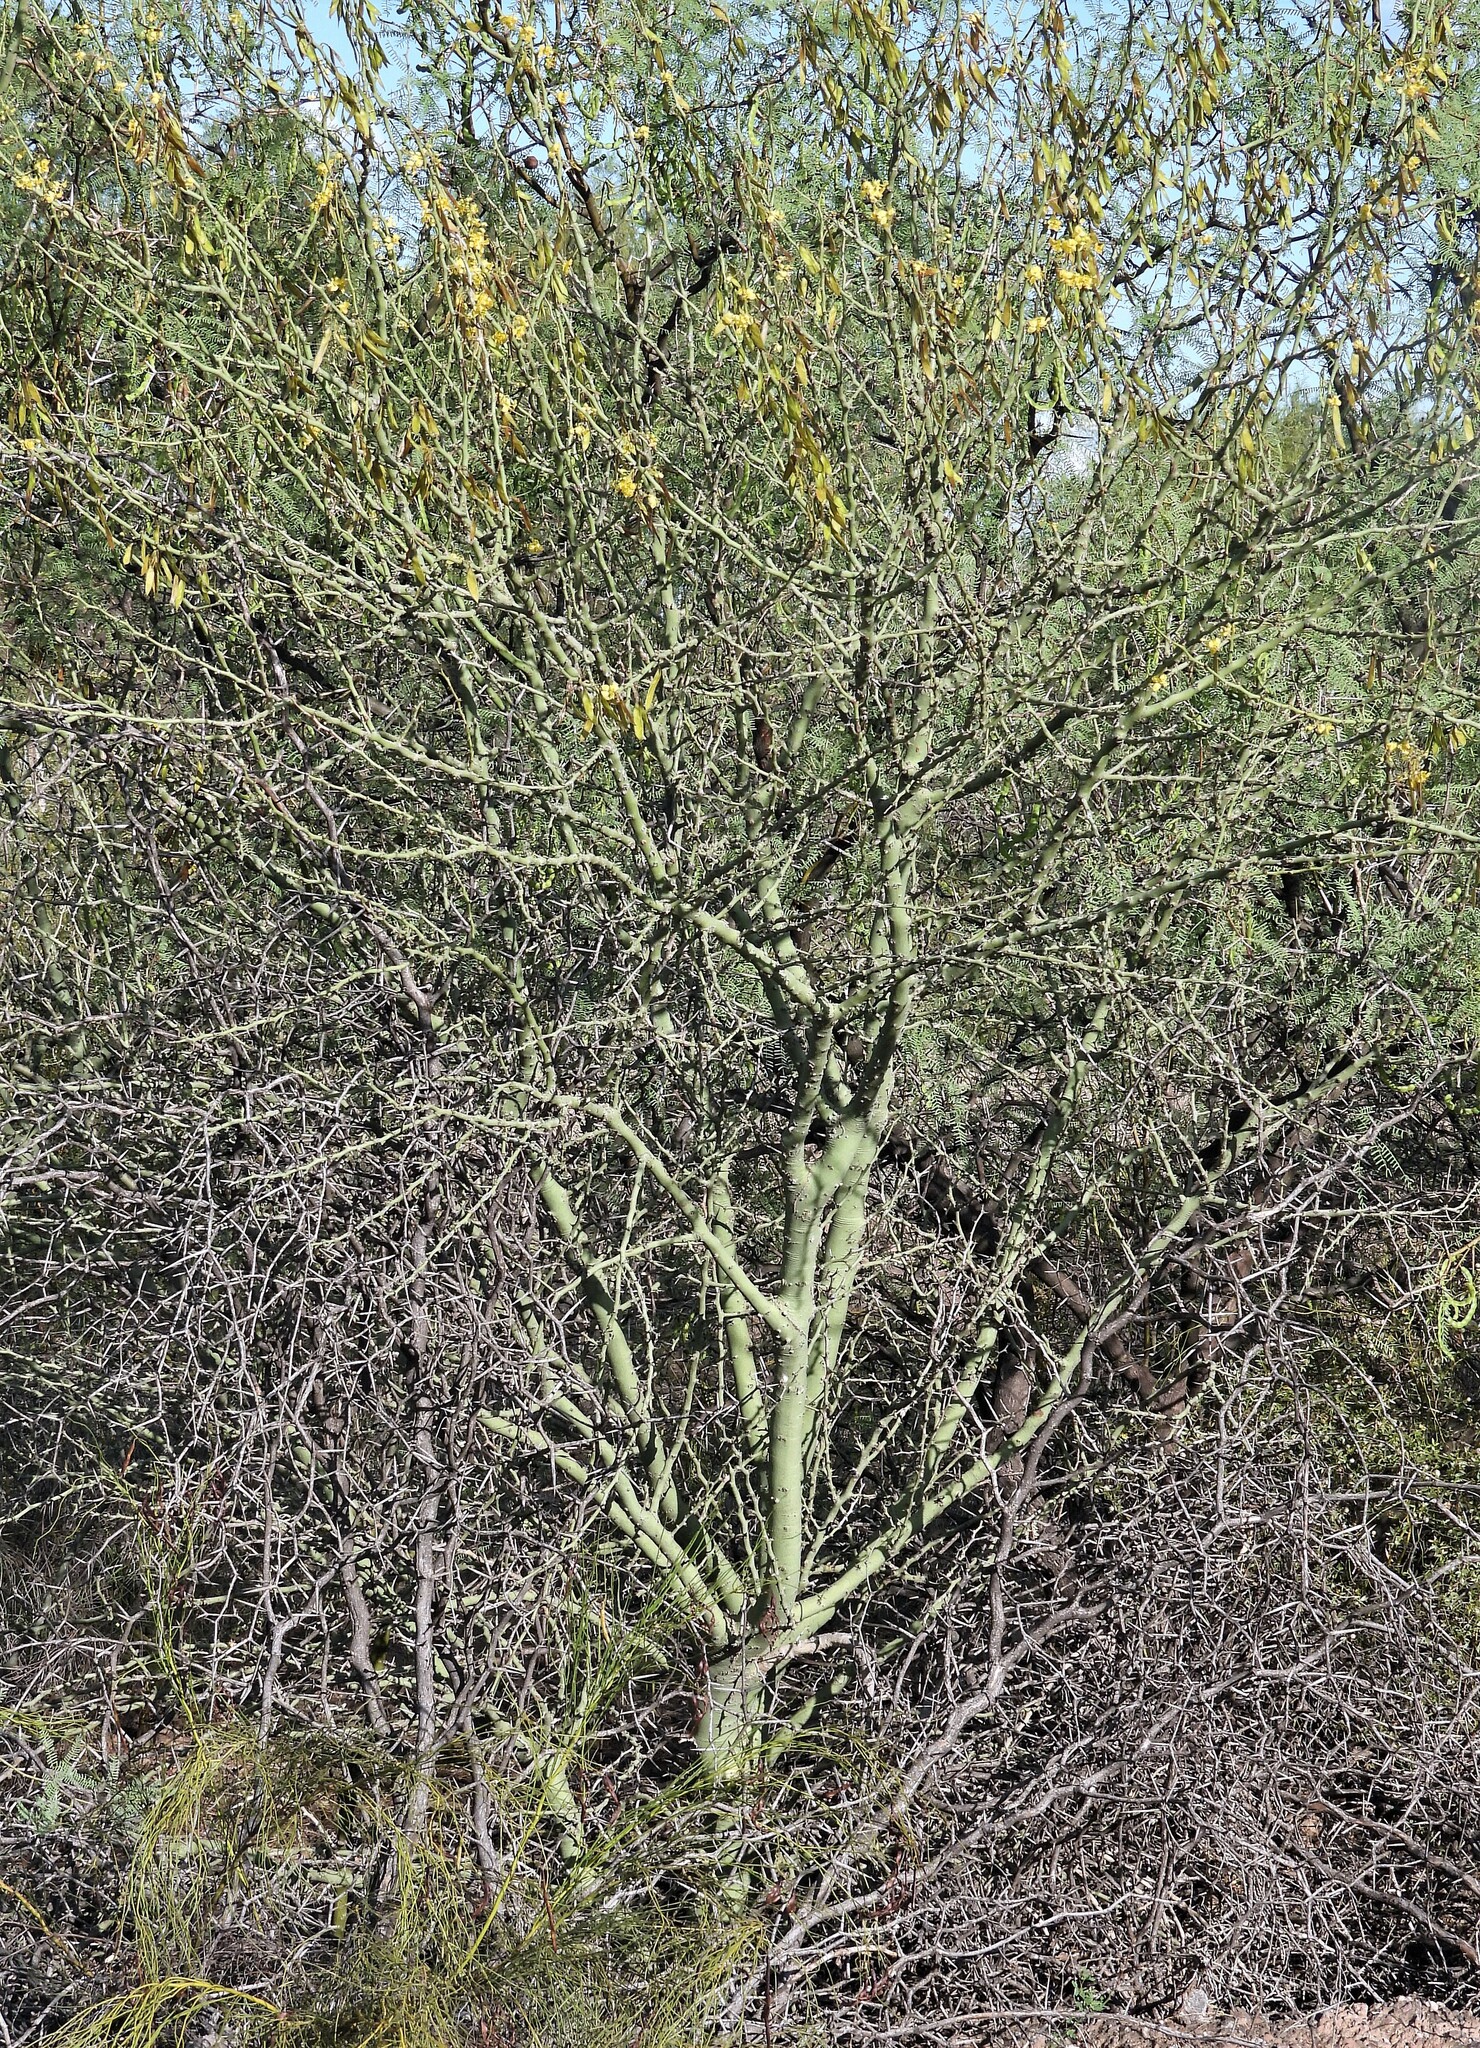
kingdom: Plantae
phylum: Tracheophyta
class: Magnoliopsida
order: Fabales
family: Fabaceae
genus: Parkinsonia
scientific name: Parkinsonia praecox
